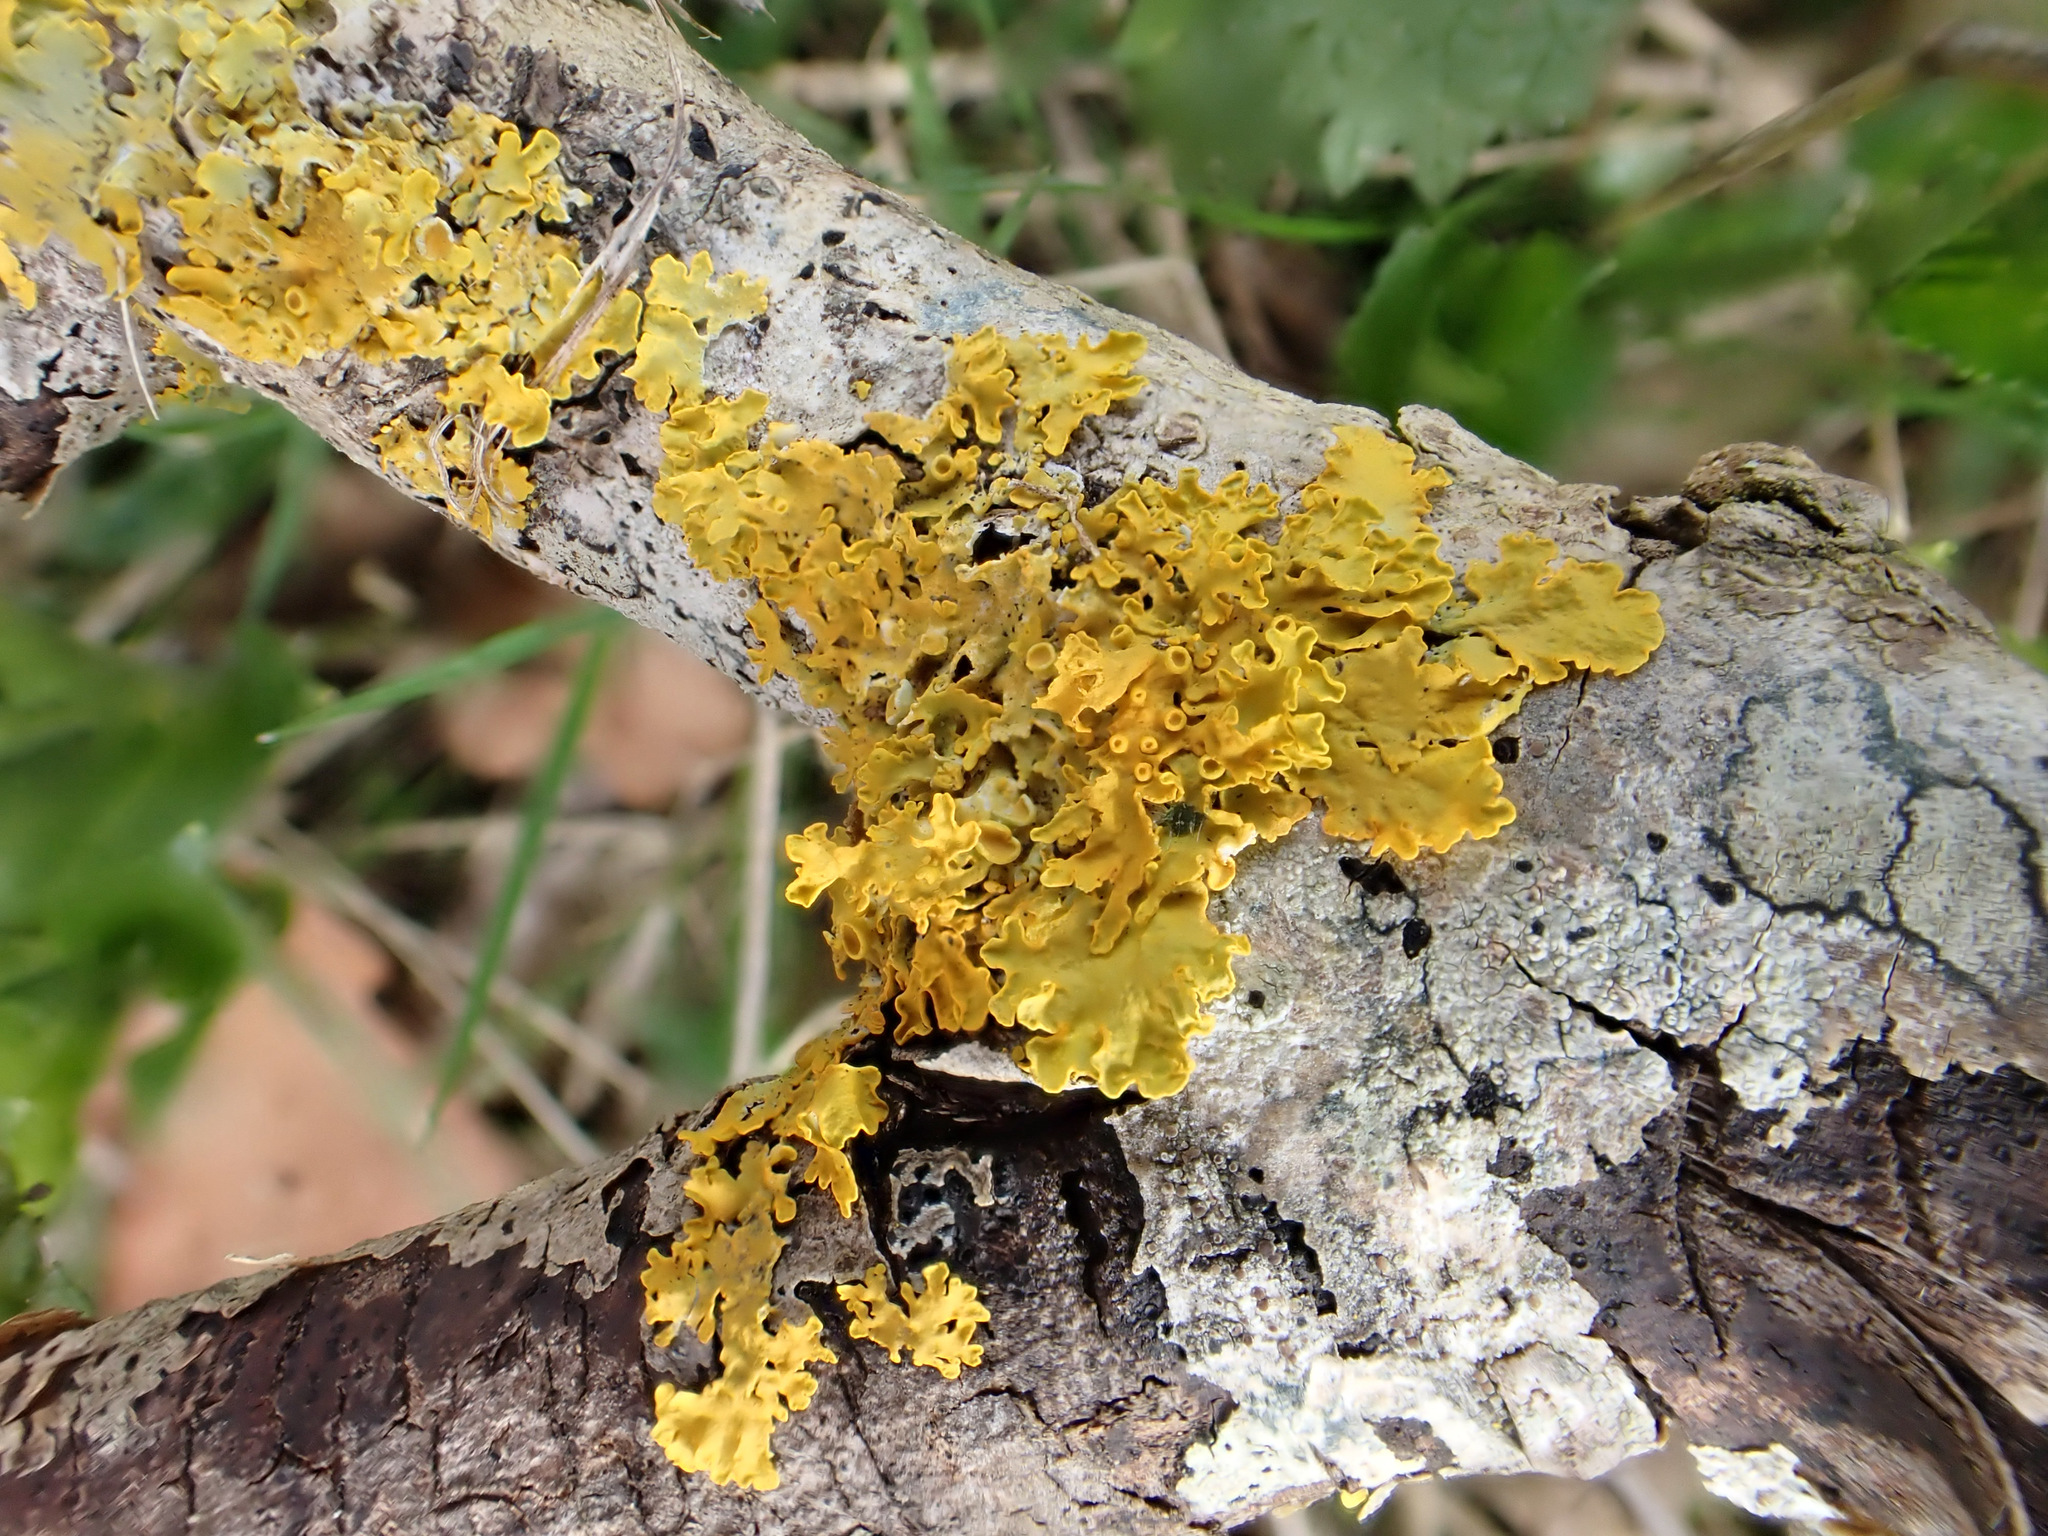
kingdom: Fungi
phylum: Ascomycota
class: Lecanoromycetes
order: Teloschistales
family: Teloschistaceae
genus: Xanthoria
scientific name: Xanthoria parietina
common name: Common orange lichen
